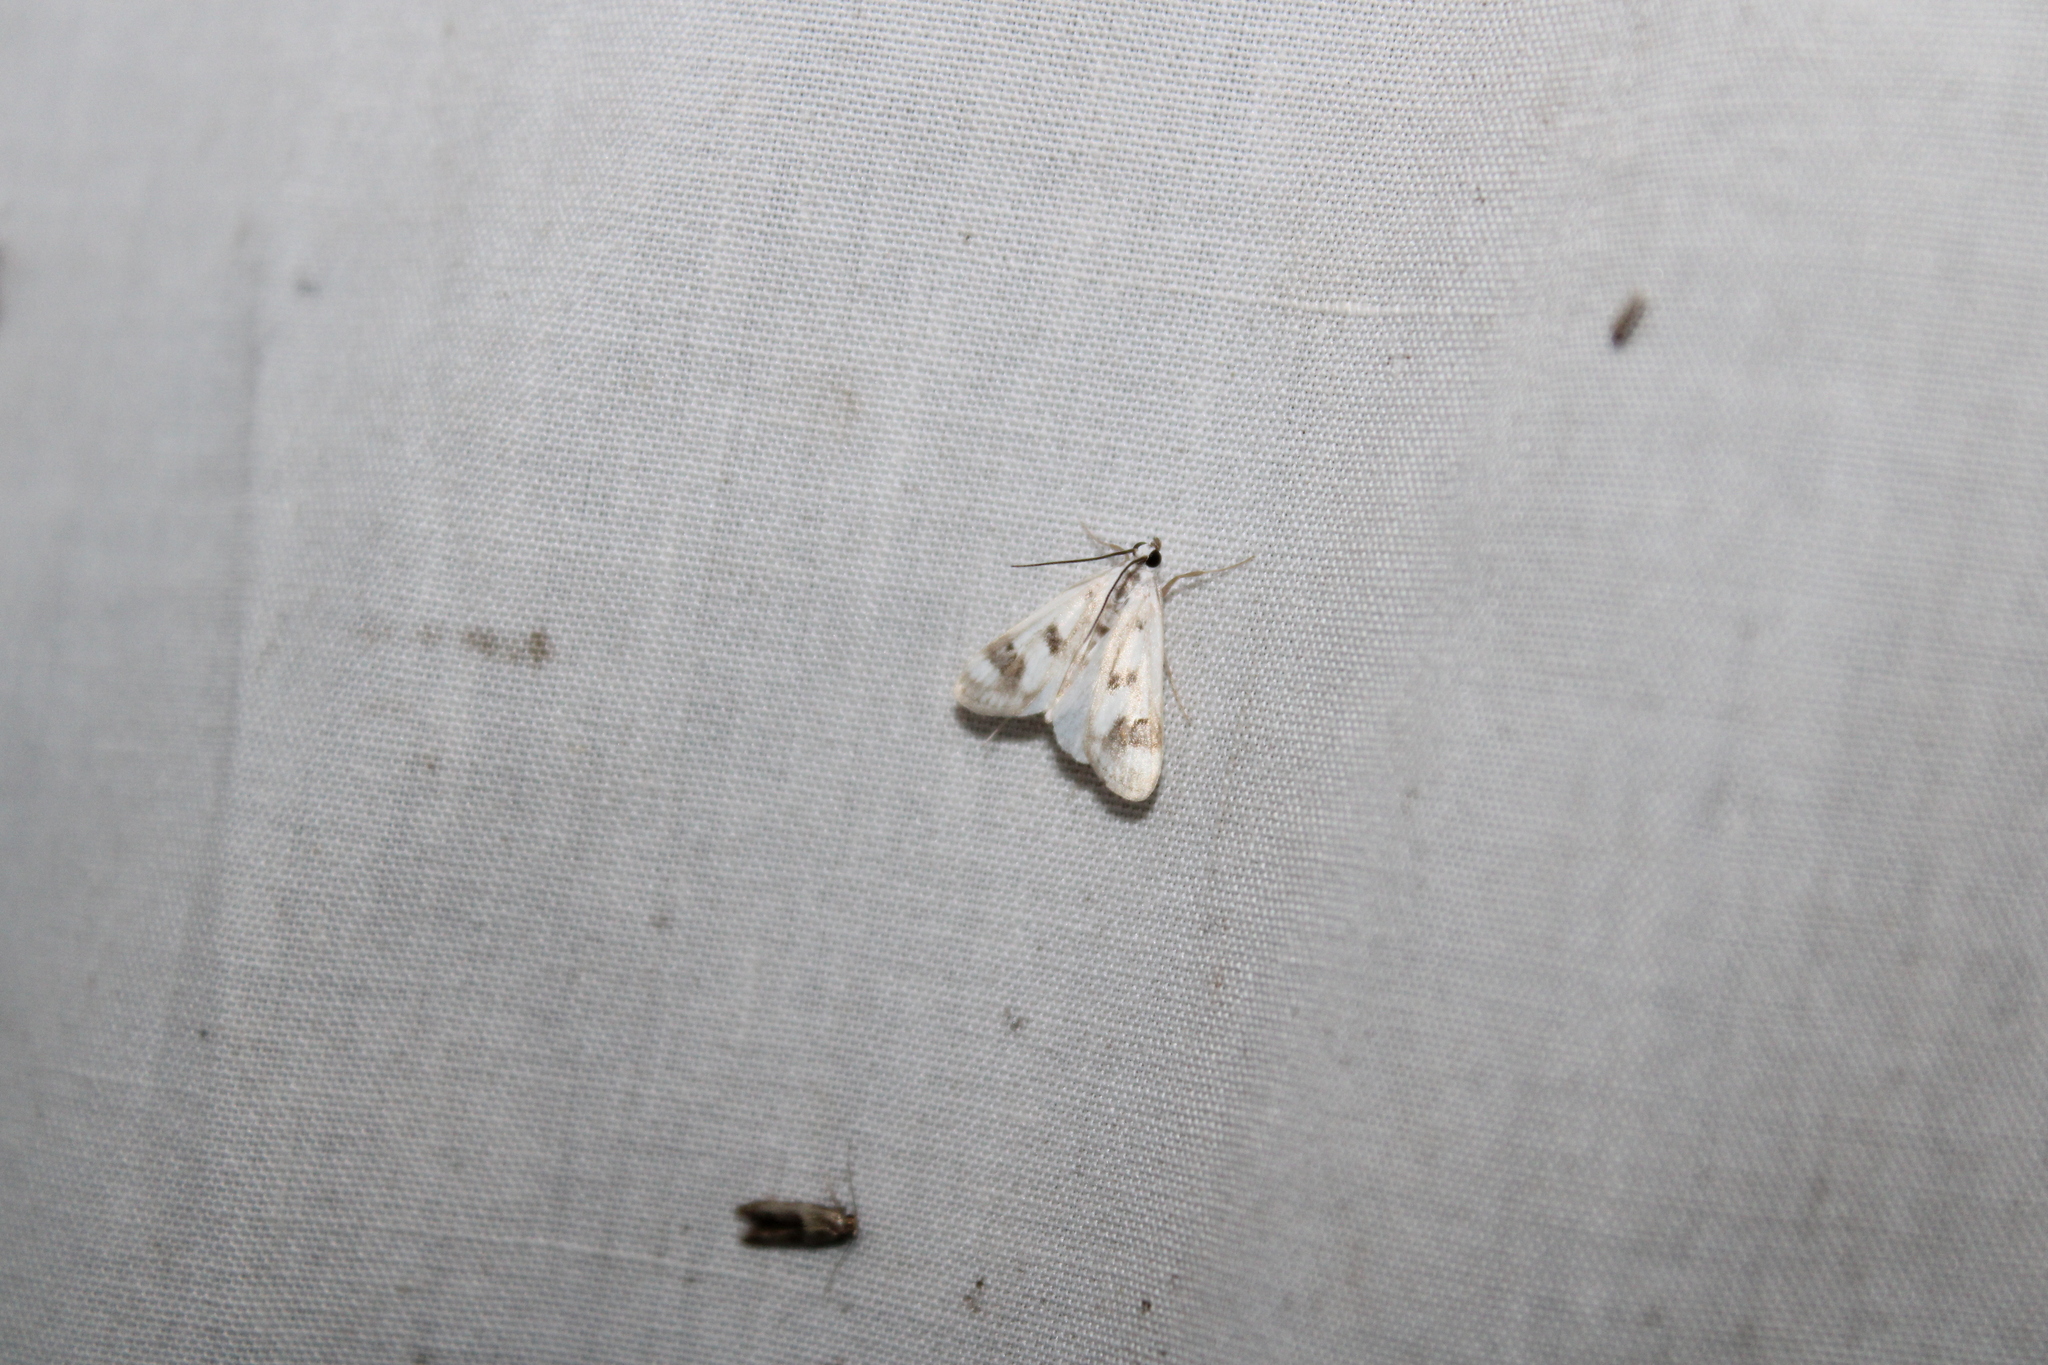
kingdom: Animalia
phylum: Arthropoda
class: Insecta
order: Lepidoptera
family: Crambidae
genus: Parapoynx
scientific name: Parapoynx maculalis
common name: Polymorphic pondweed moth
